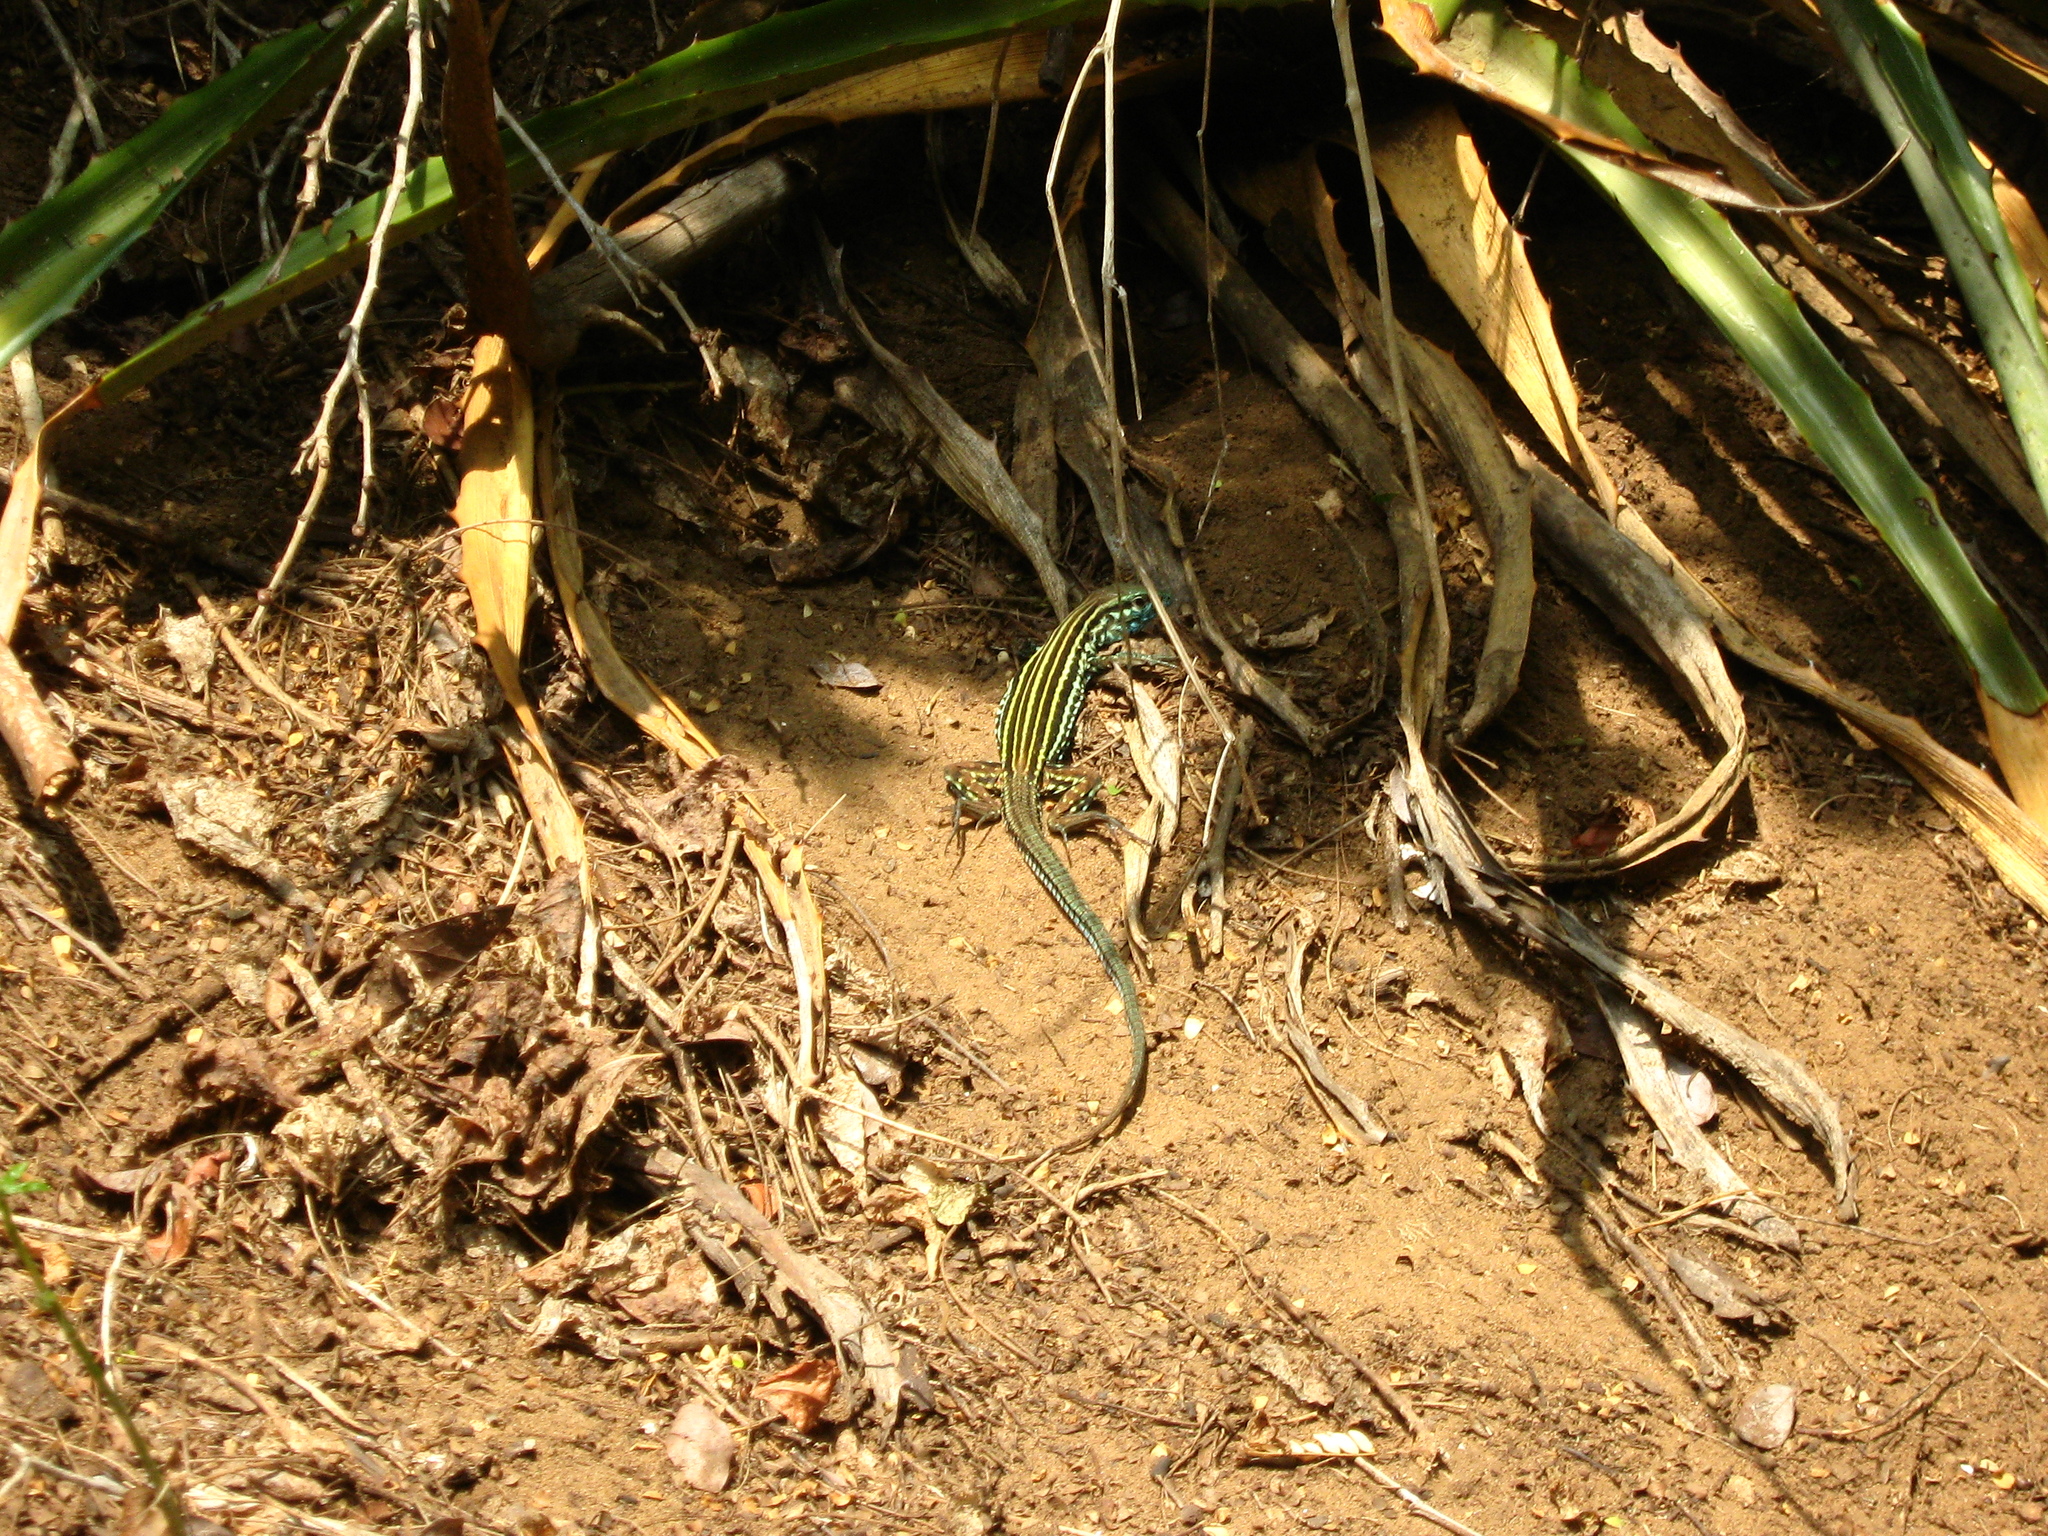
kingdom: Animalia
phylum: Chordata
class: Squamata
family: Teiidae
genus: Aspidoscelis
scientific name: Aspidoscelis lineattissimus
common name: Many-lined whiptail
